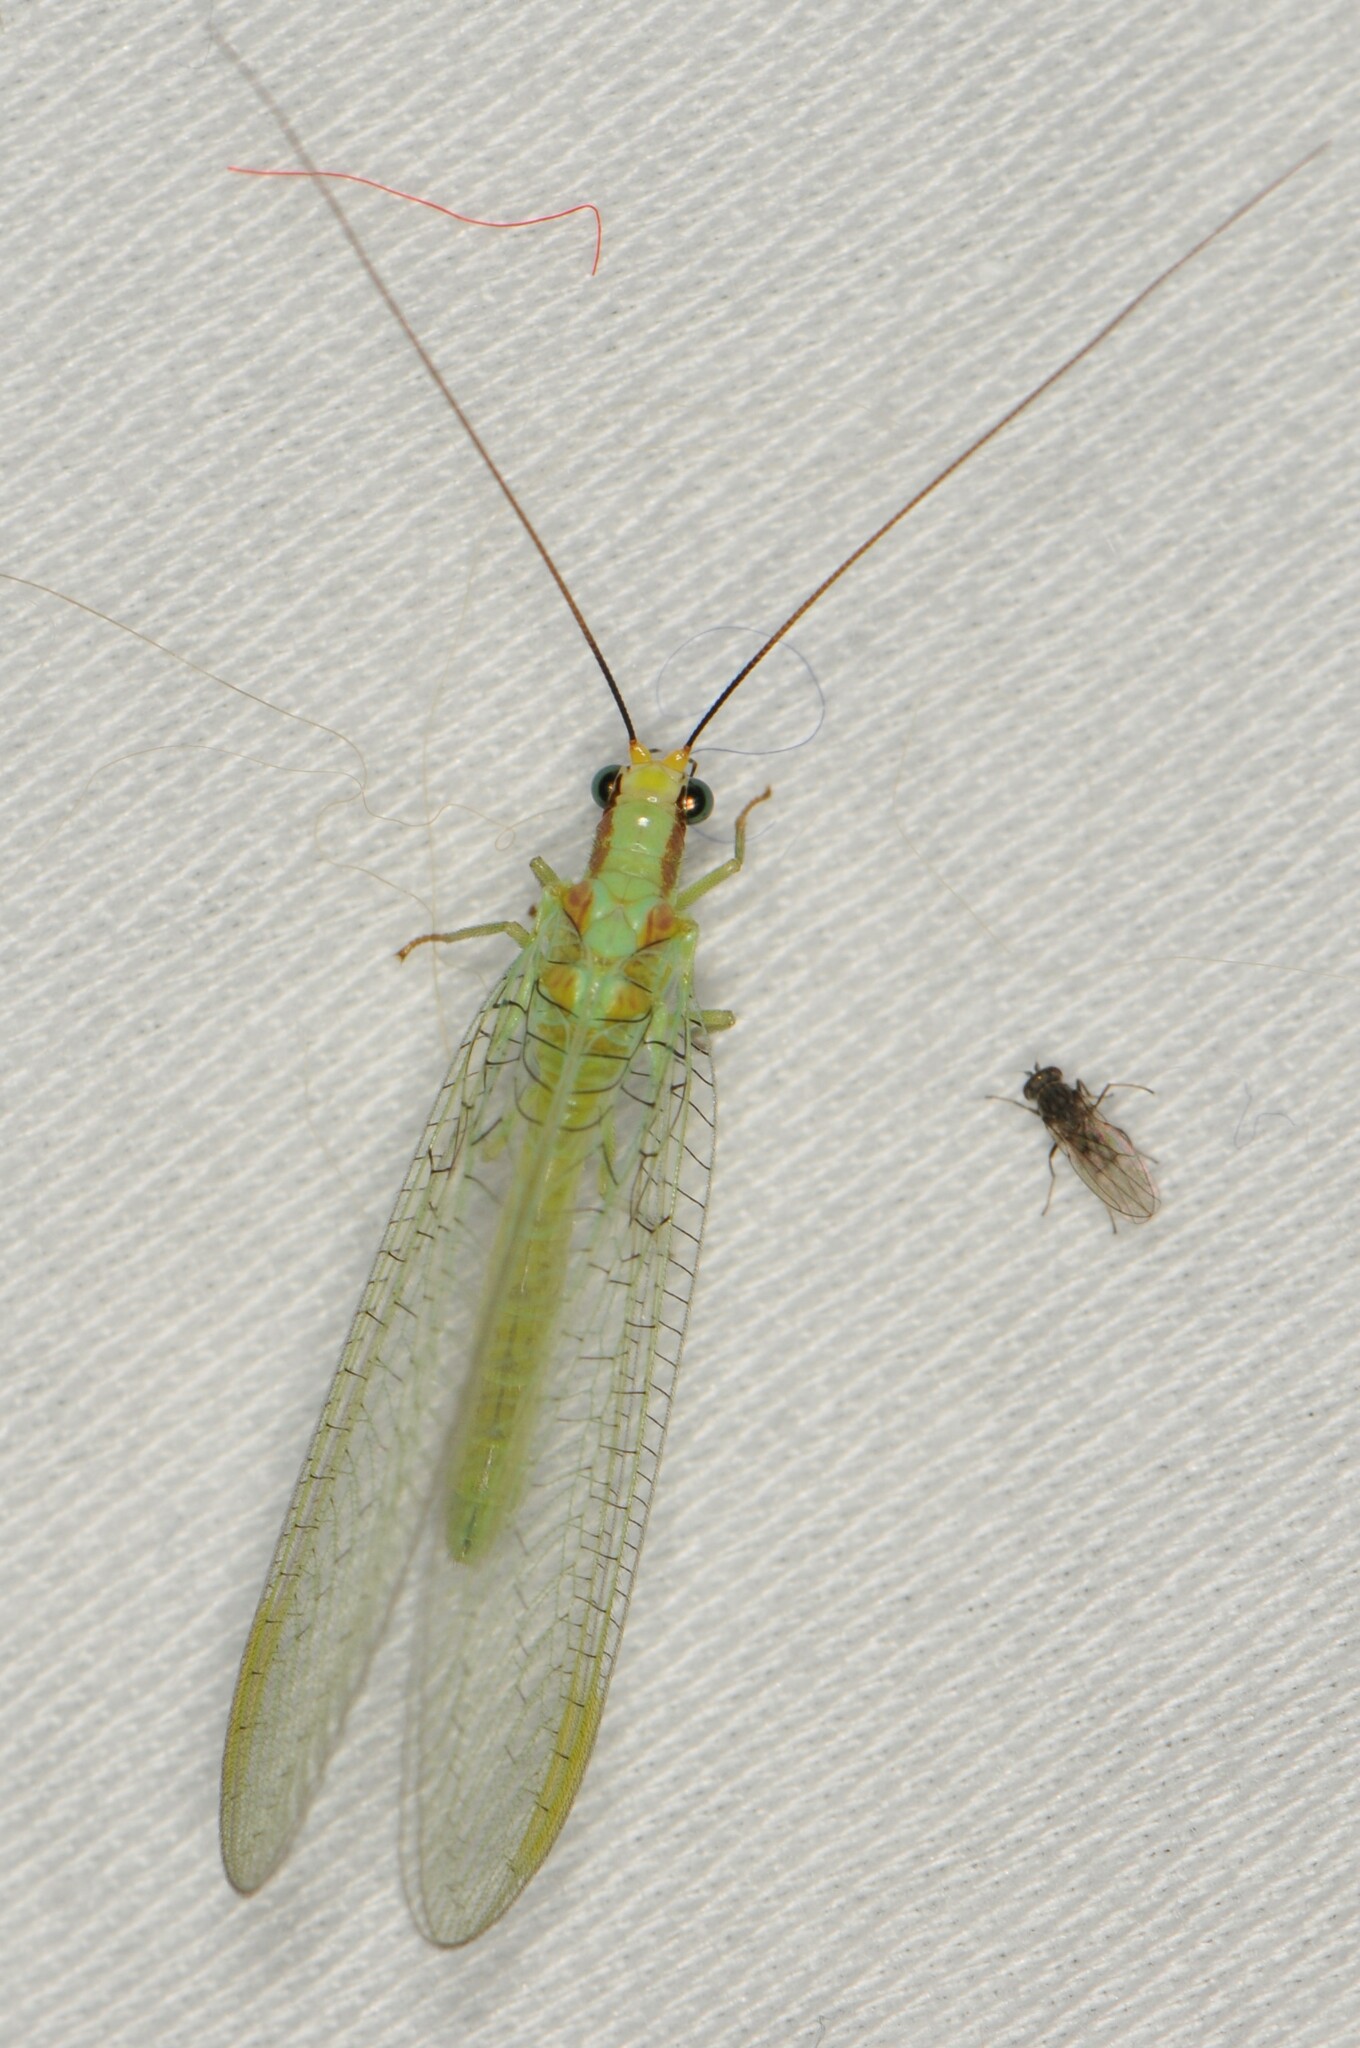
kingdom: Animalia
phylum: Arthropoda
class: Insecta
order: Neuroptera
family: Chrysopidae
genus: Chrysopa
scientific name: Chrysopa coloradensis
